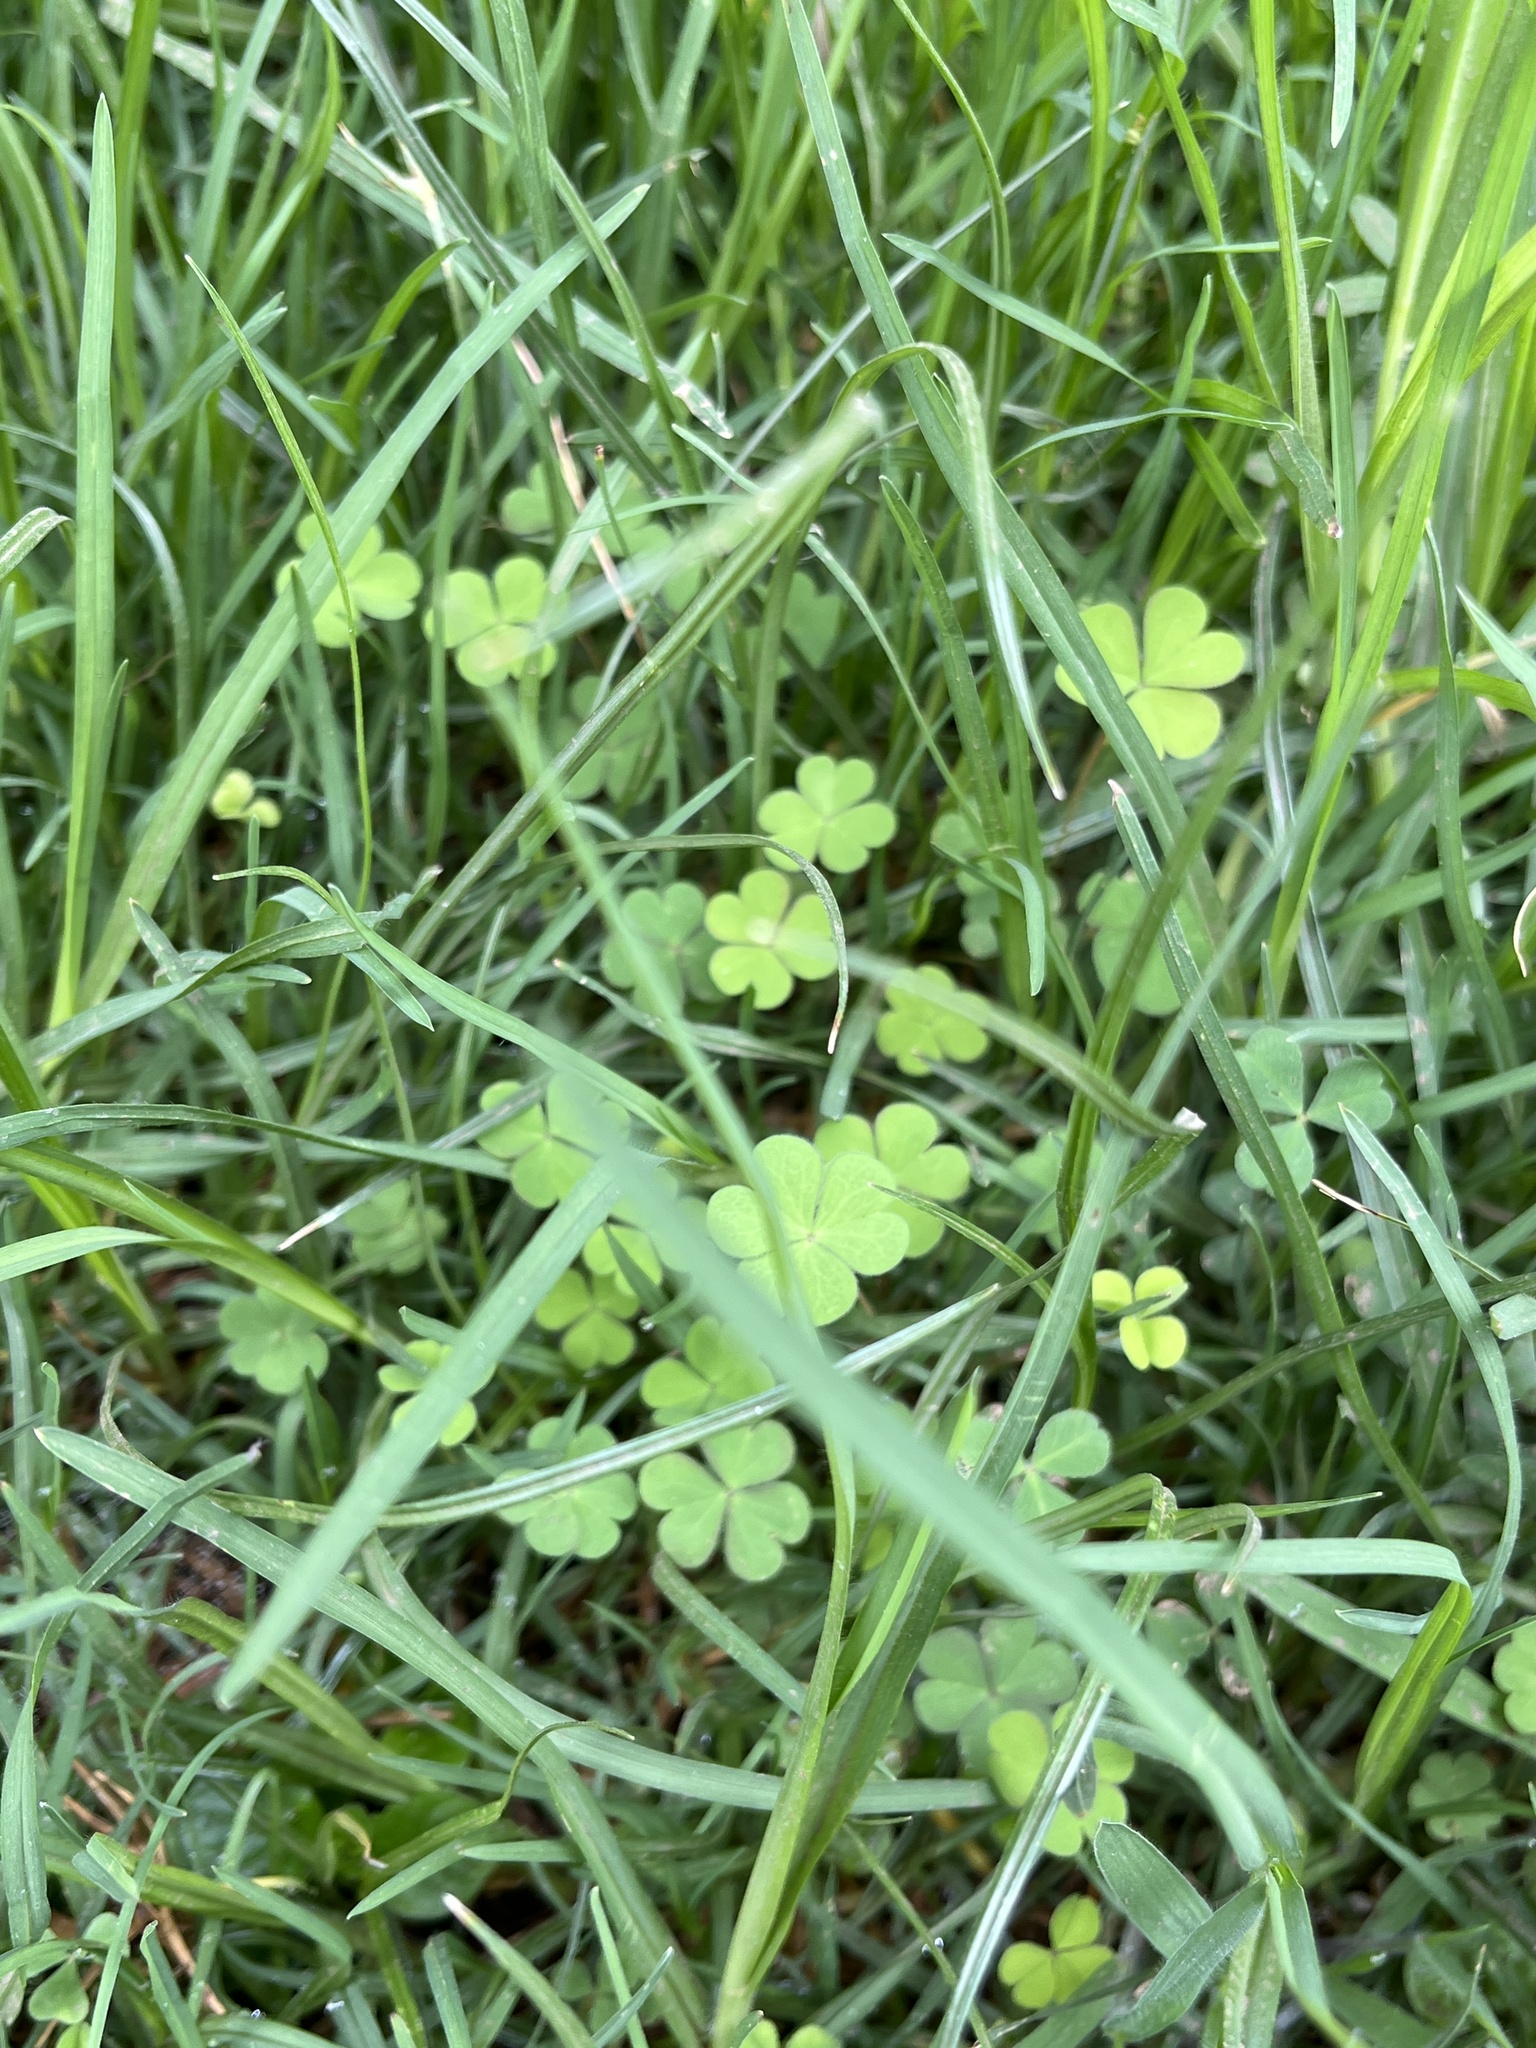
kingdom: Plantae
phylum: Tracheophyta
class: Magnoliopsida
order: Oxalidales
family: Oxalidaceae
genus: Oxalis
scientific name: Oxalis corniculata
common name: Procumbent yellow-sorrel
